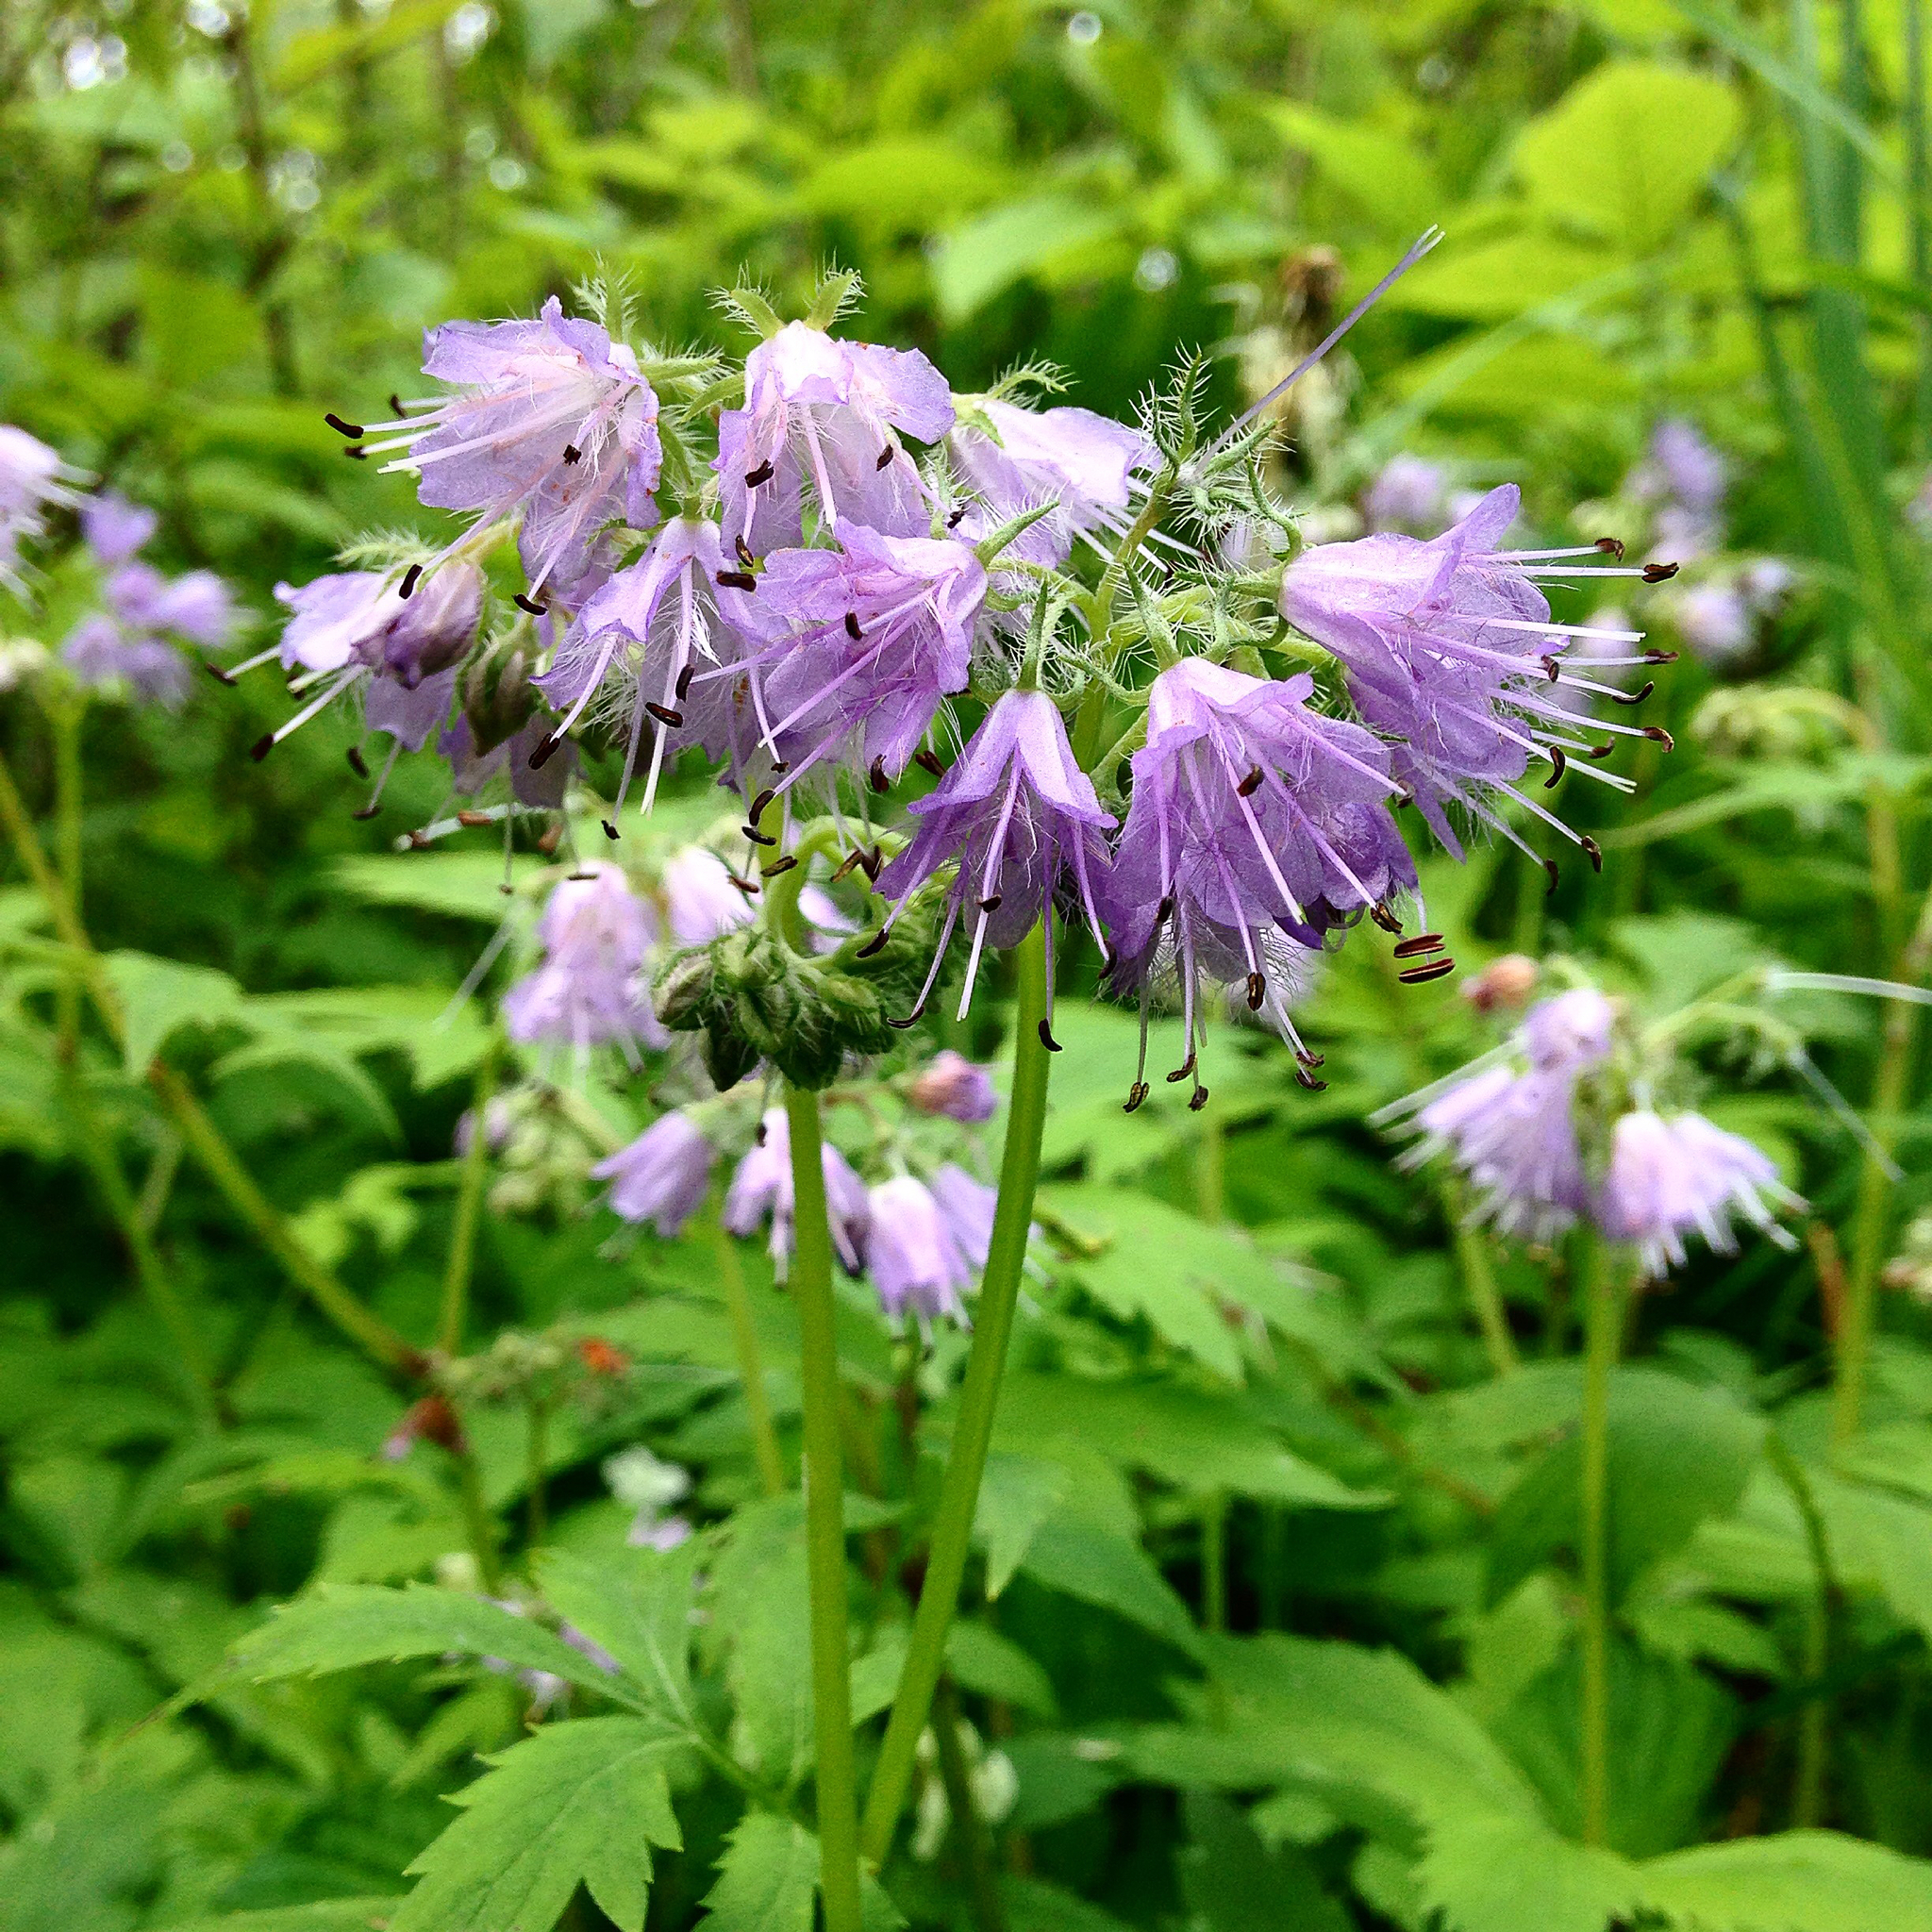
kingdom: Plantae
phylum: Tracheophyta
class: Magnoliopsida
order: Boraginales
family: Hydrophyllaceae
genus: Hydrophyllum
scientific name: Hydrophyllum virginianum
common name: Virginia waterleaf
